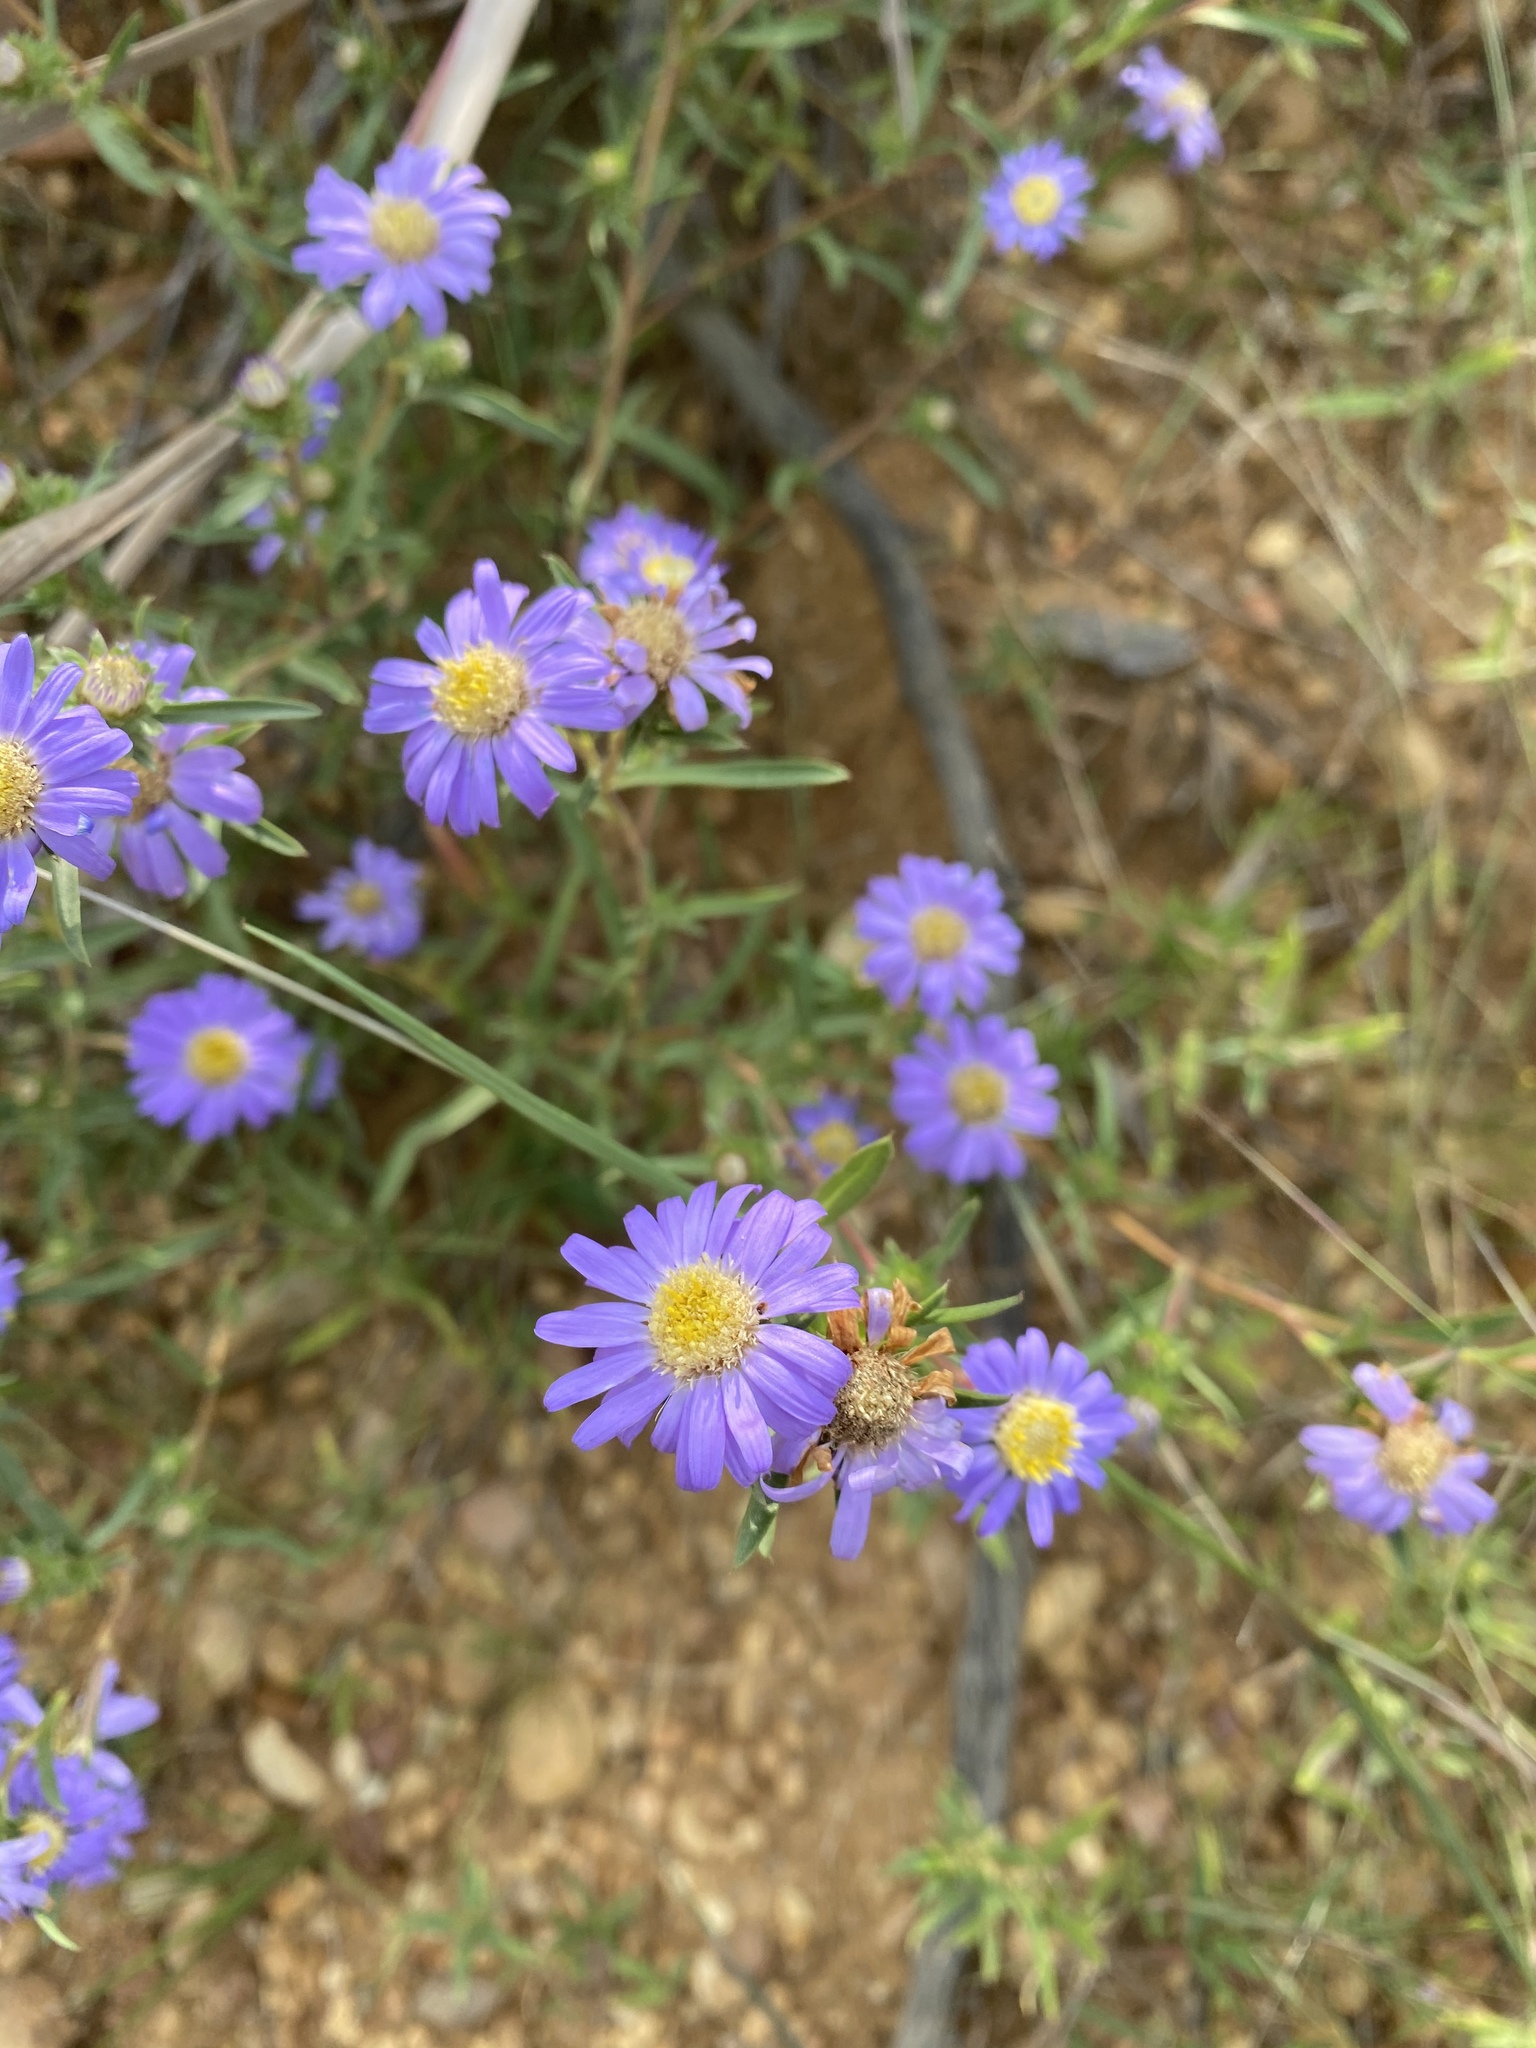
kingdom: Plantae
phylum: Tracheophyta
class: Magnoliopsida
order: Asterales
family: Asteraceae
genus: Eurybia
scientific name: Eurybia hemispherica
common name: Showy aster
